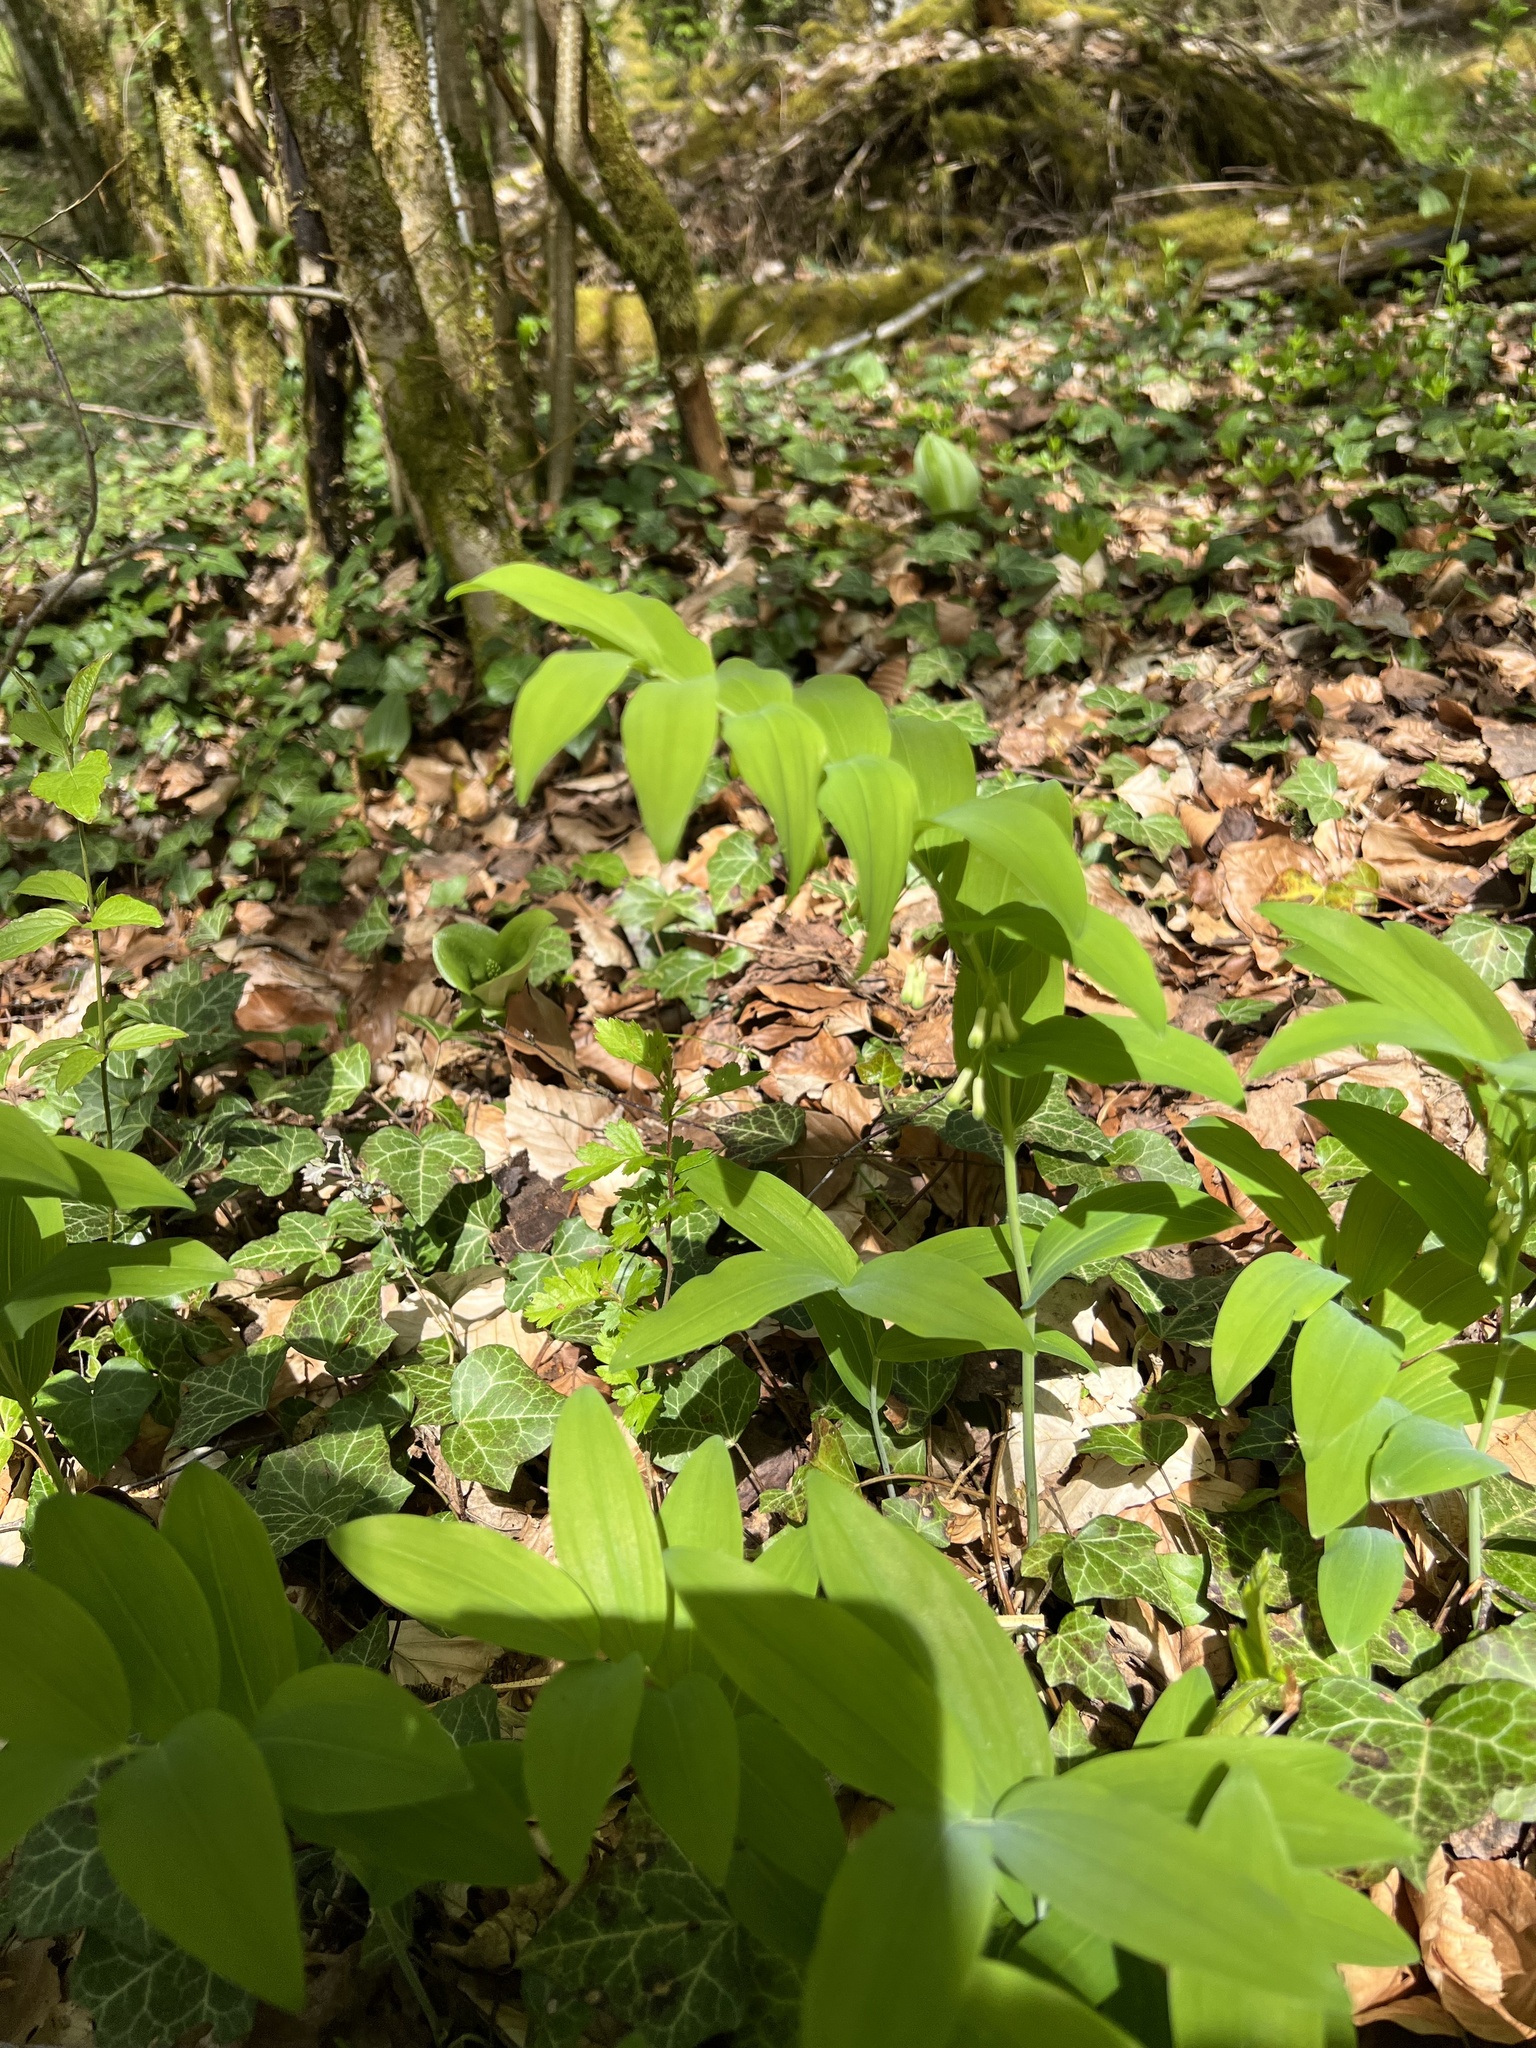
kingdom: Plantae
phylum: Tracheophyta
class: Liliopsida
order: Asparagales
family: Asparagaceae
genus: Polygonatum
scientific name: Polygonatum multiflorum
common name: Solomon's-seal
